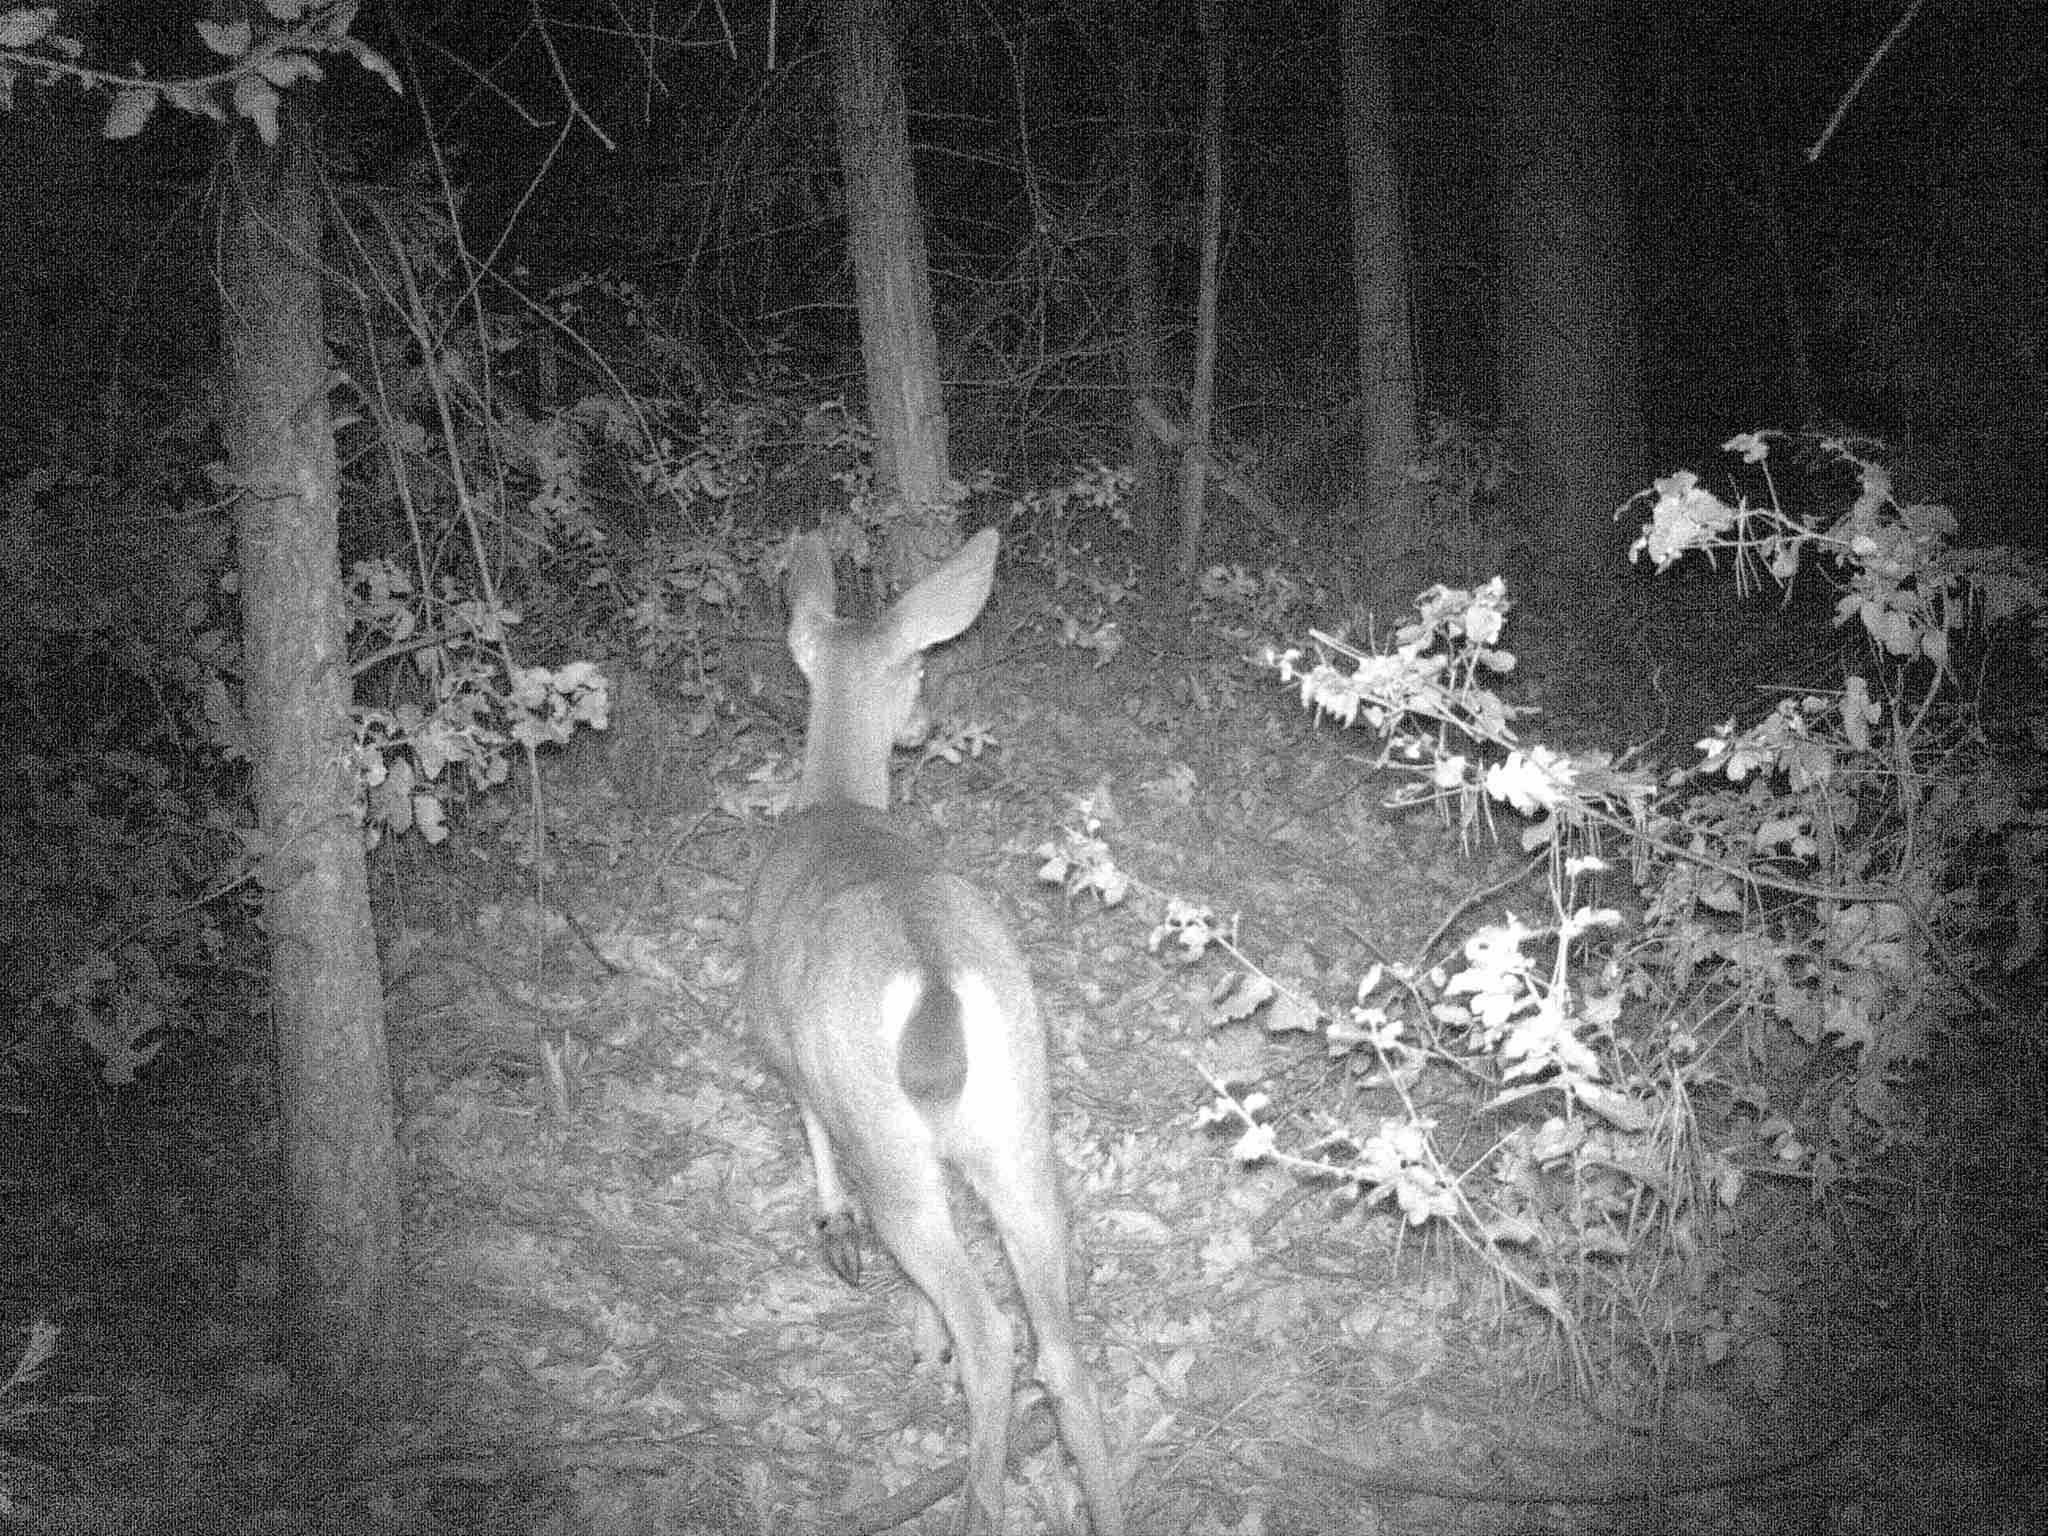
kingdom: Animalia
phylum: Chordata
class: Mammalia
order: Artiodactyla
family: Cervidae
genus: Odocoileus
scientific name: Odocoileus hemionus
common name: Mule deer
